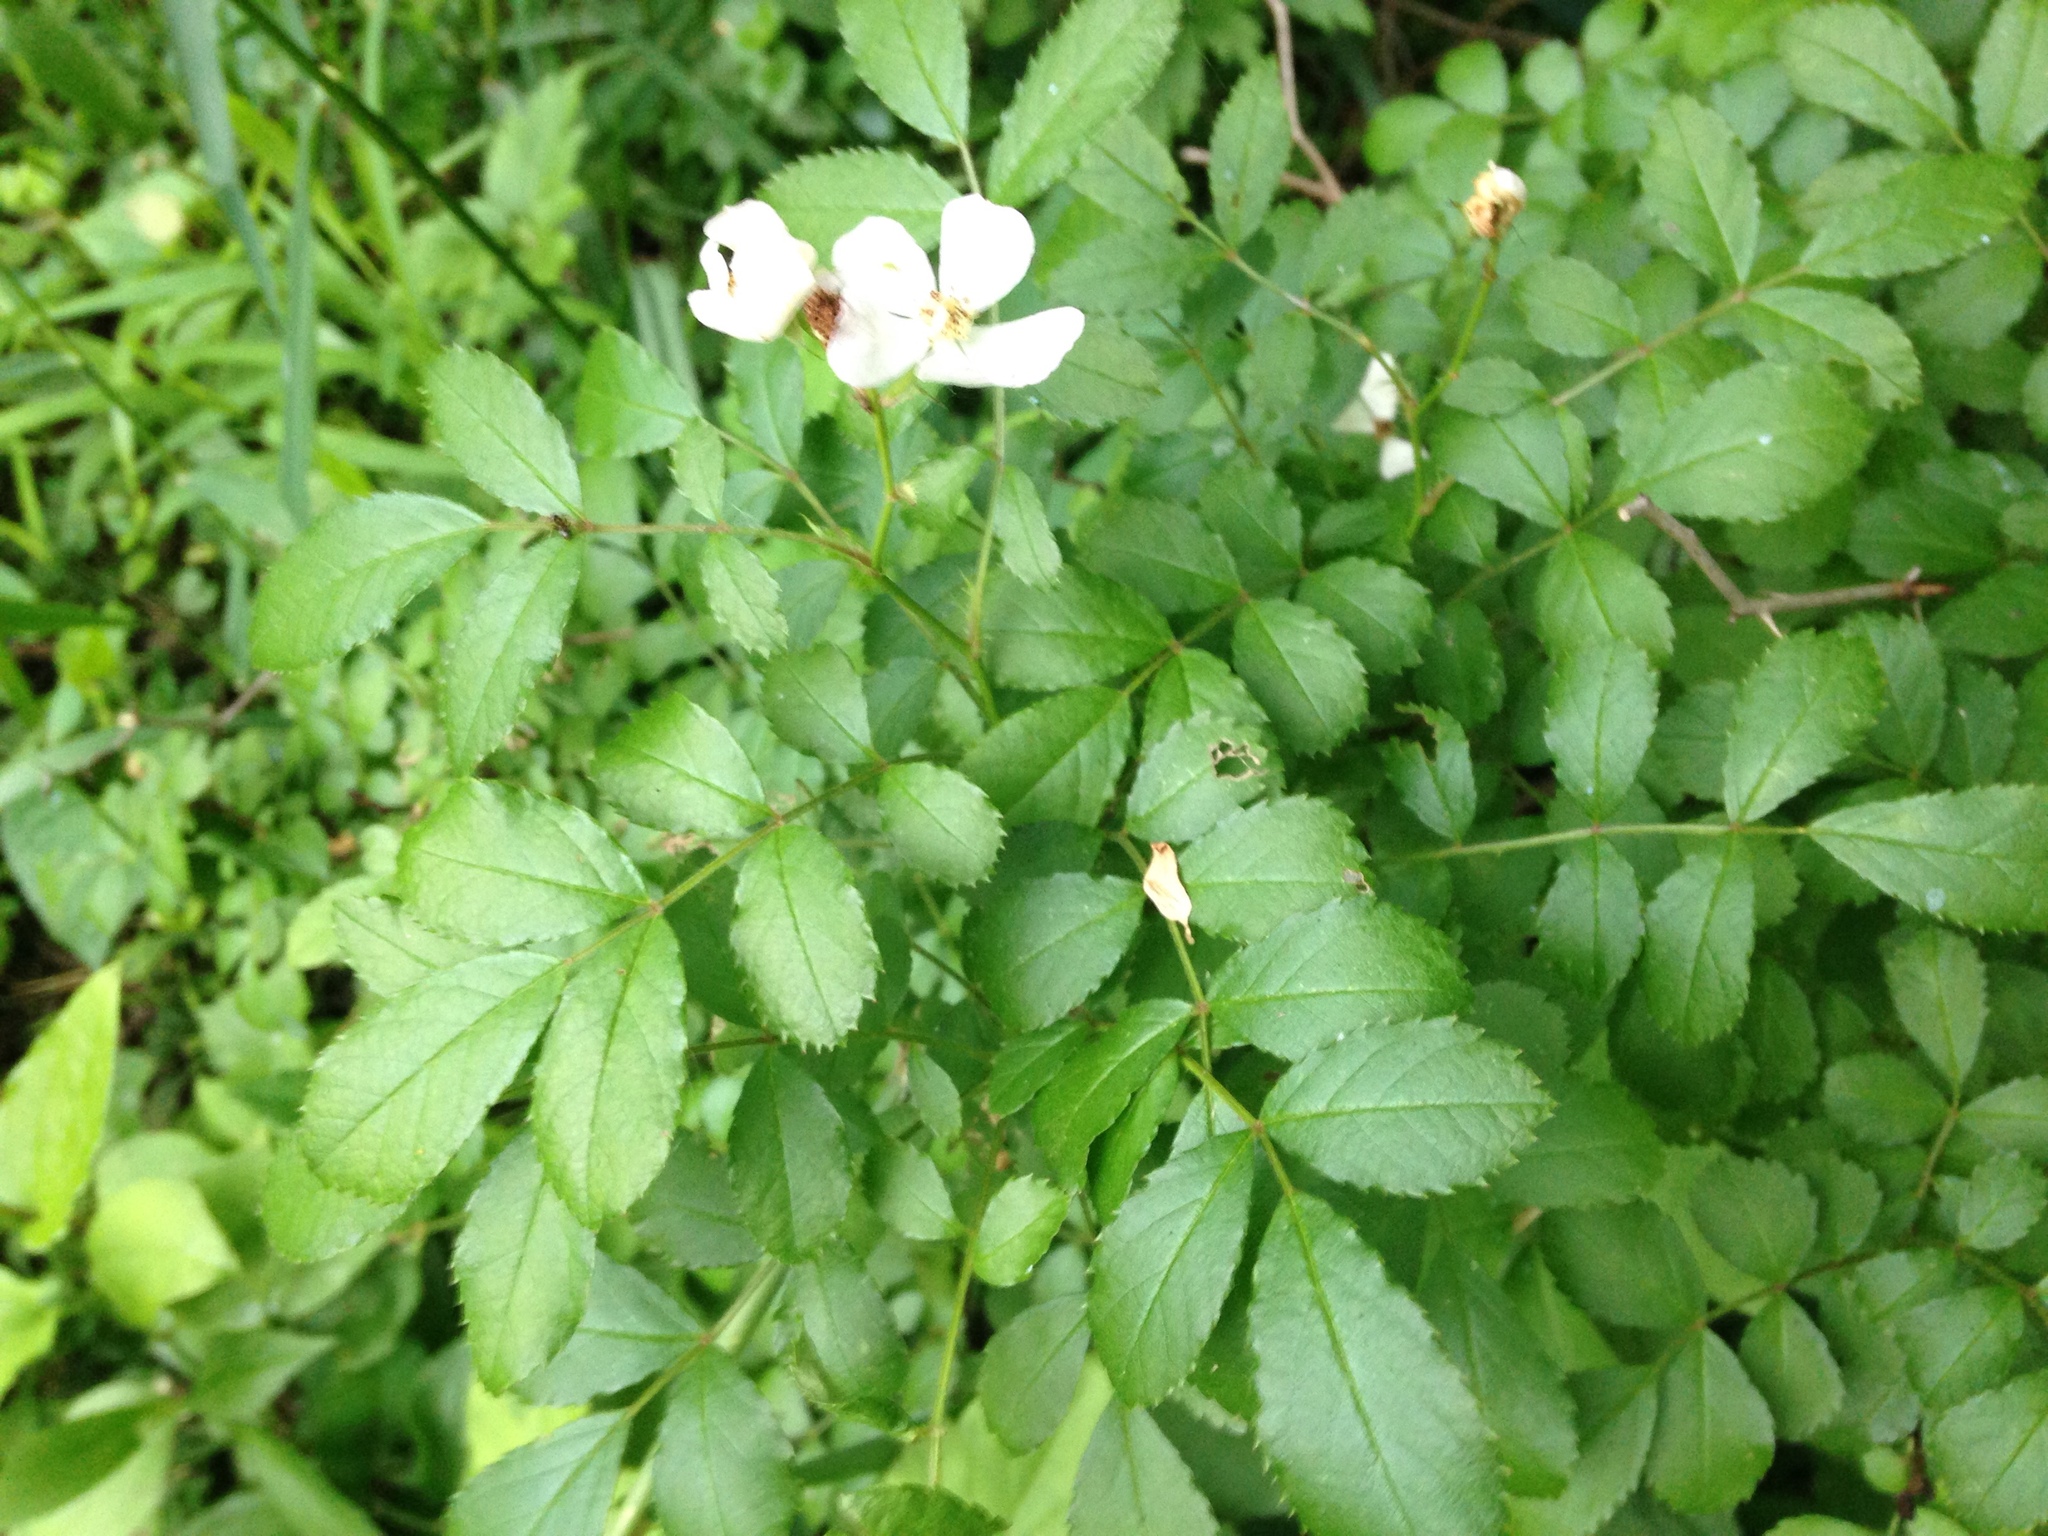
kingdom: Plantae
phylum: Tracheophyta
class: Magnoliopsida
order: Rosales
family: Rosaceae
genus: Rosa
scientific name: Rosa multiflora
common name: Multiflora rose
